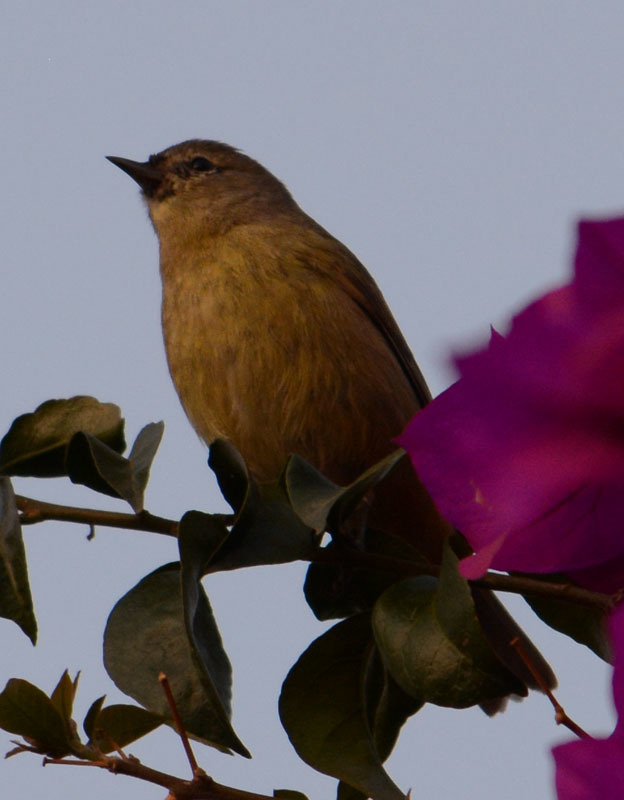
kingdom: Animalia
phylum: Chordata
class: Aves
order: Passeriformes
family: Parulidae
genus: Leiothlypis
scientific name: Leiothlypis celata
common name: Orange-crowned warbler
